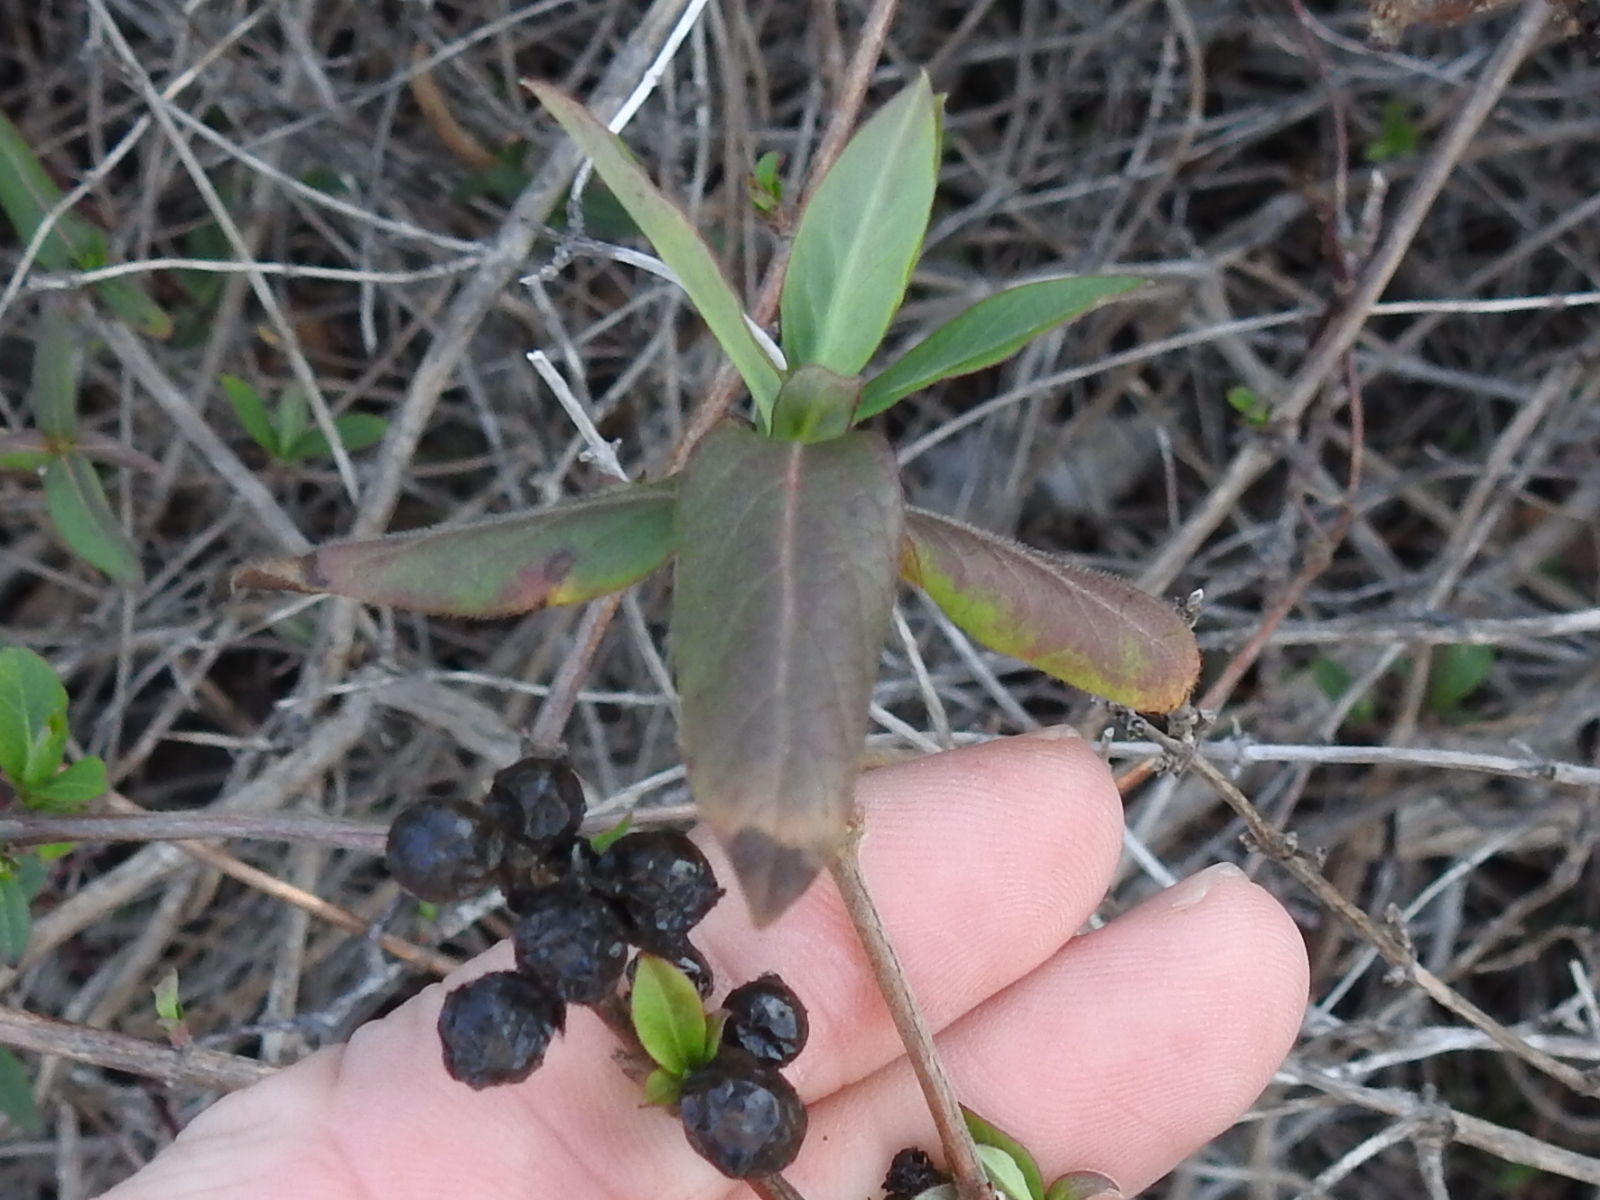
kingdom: Plantae
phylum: Tracheophyta
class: Magnoliopsida
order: Dipsacales
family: Caprifoliaceae
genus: Lonicera
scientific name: Lonicera japonica
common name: Japanese honeysuckle
